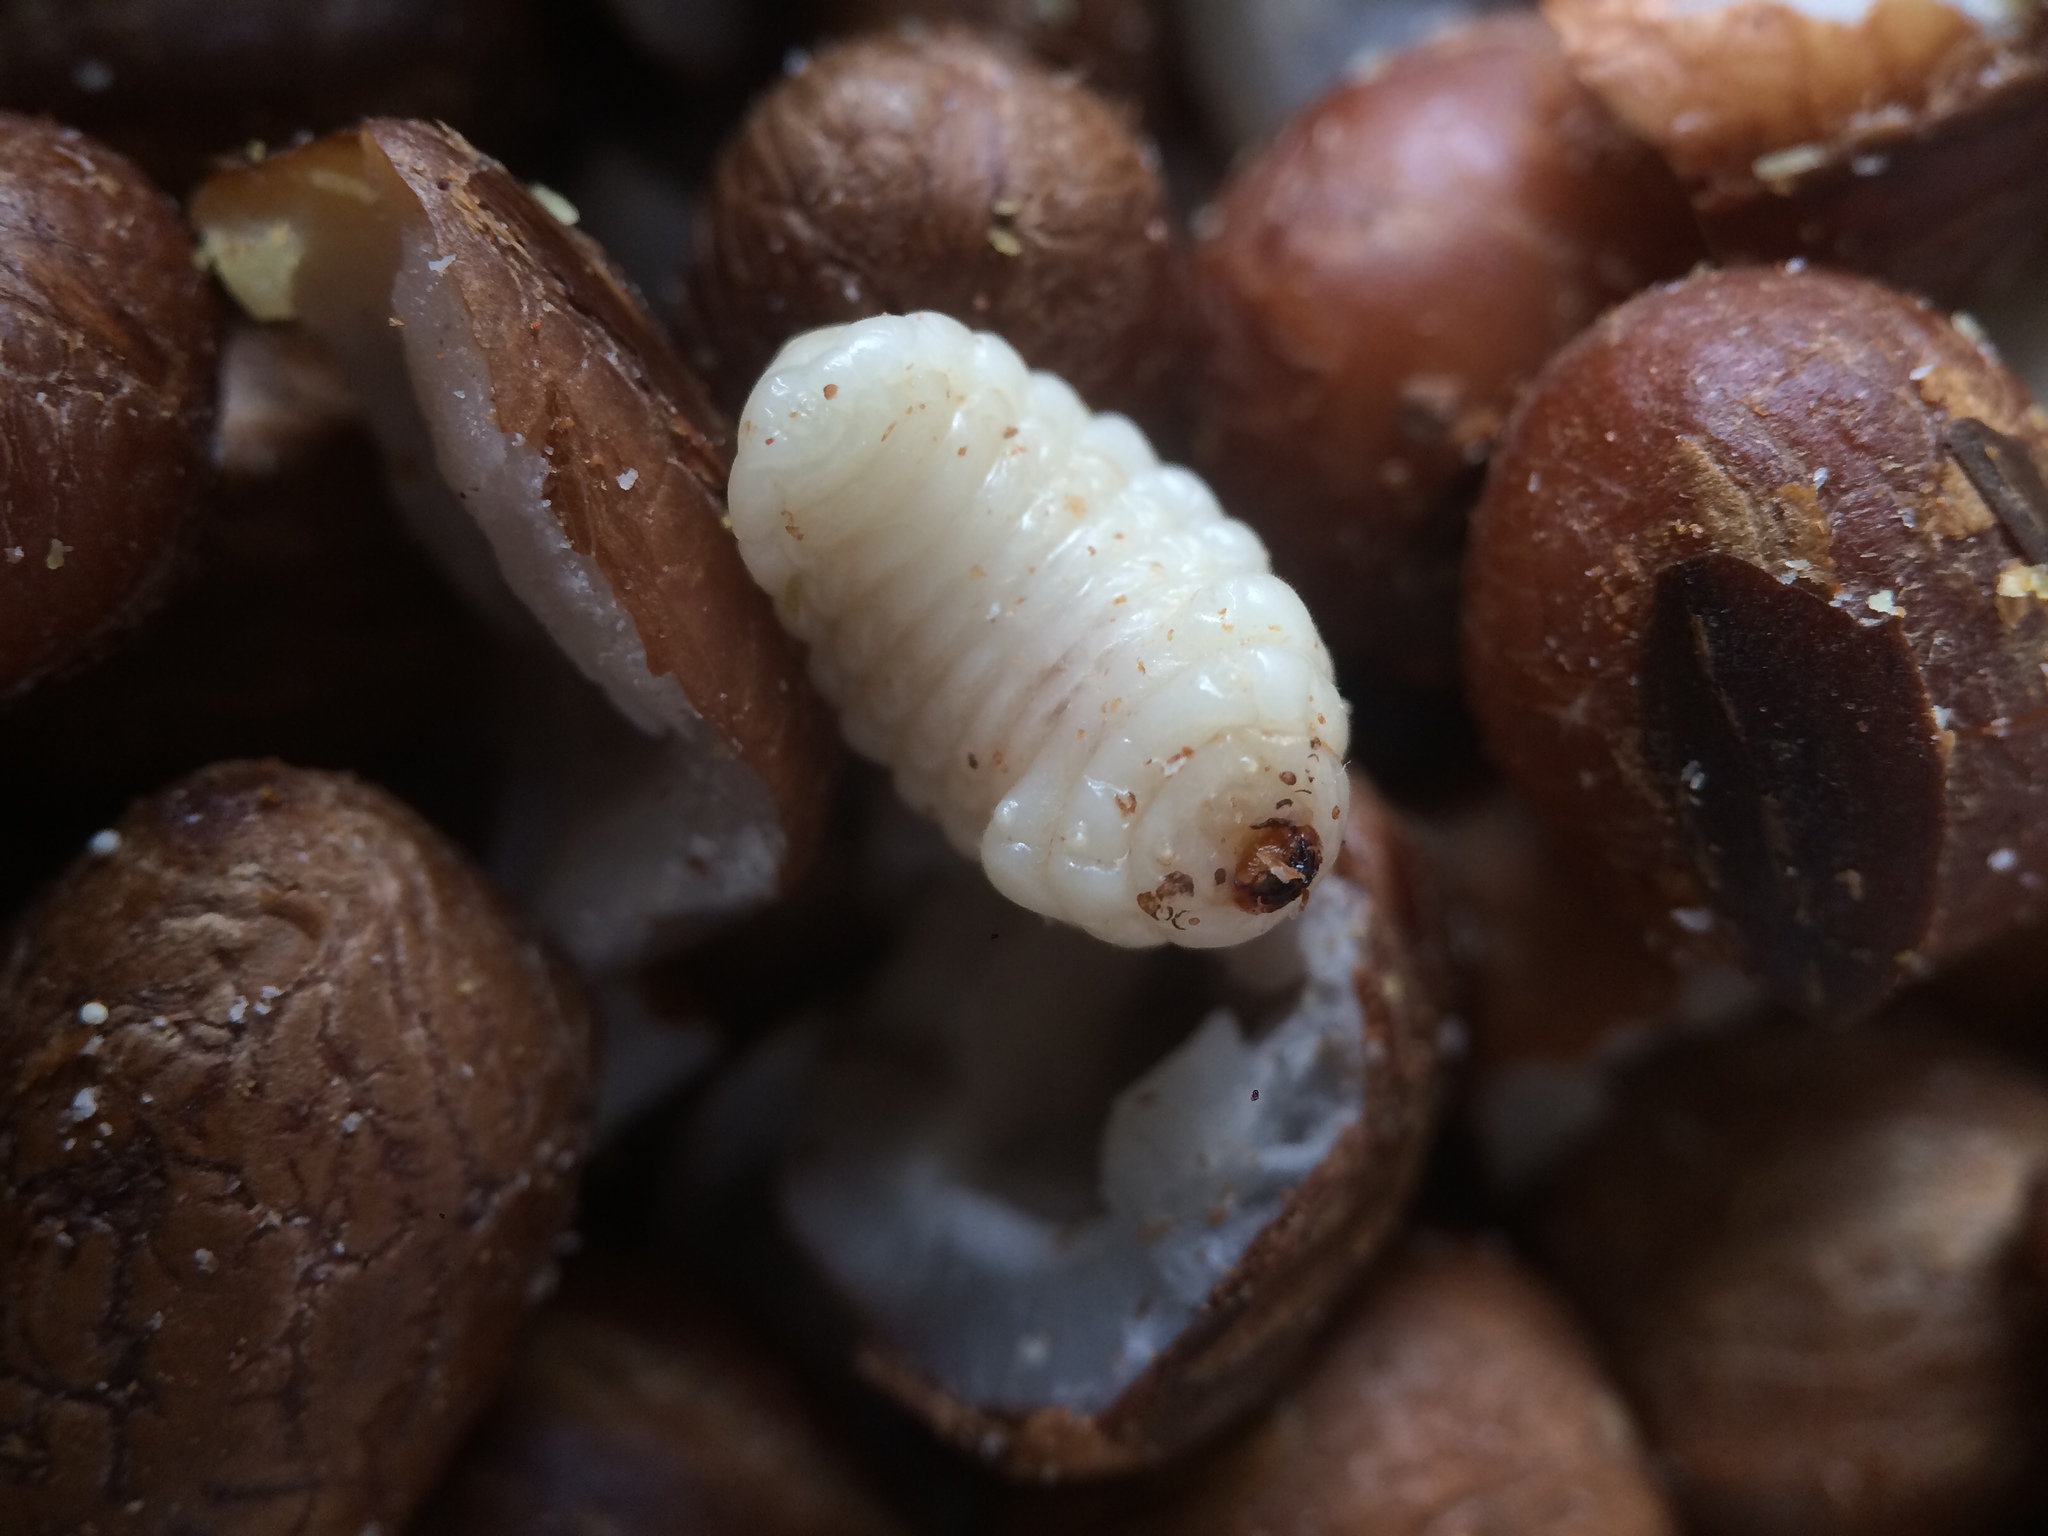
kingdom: Animalia
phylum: Arthropoda
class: Insecta
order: Coleoptera
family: Chrysomelidae
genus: Pachymerus
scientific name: Pachymerus
